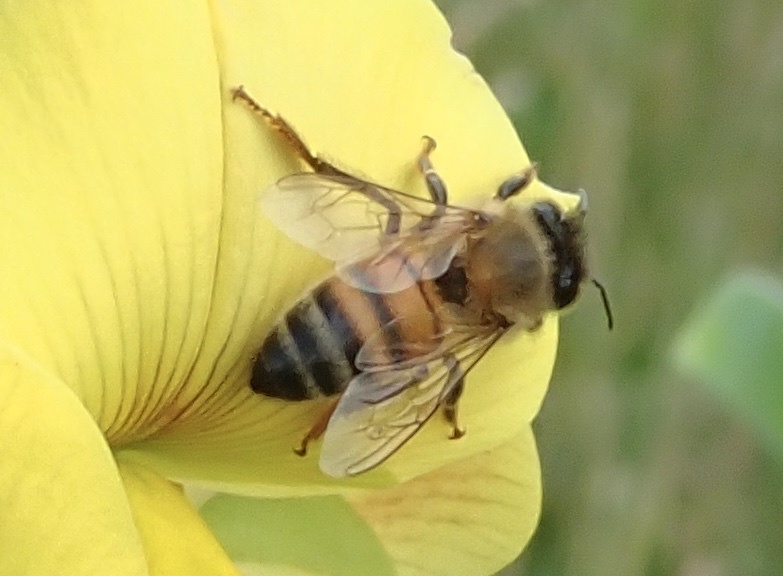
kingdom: Animalia
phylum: Arthropoda
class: Insecta
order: Hymenoptera
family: Apidae
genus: Apis
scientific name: Apis mellifera
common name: Honey bee
